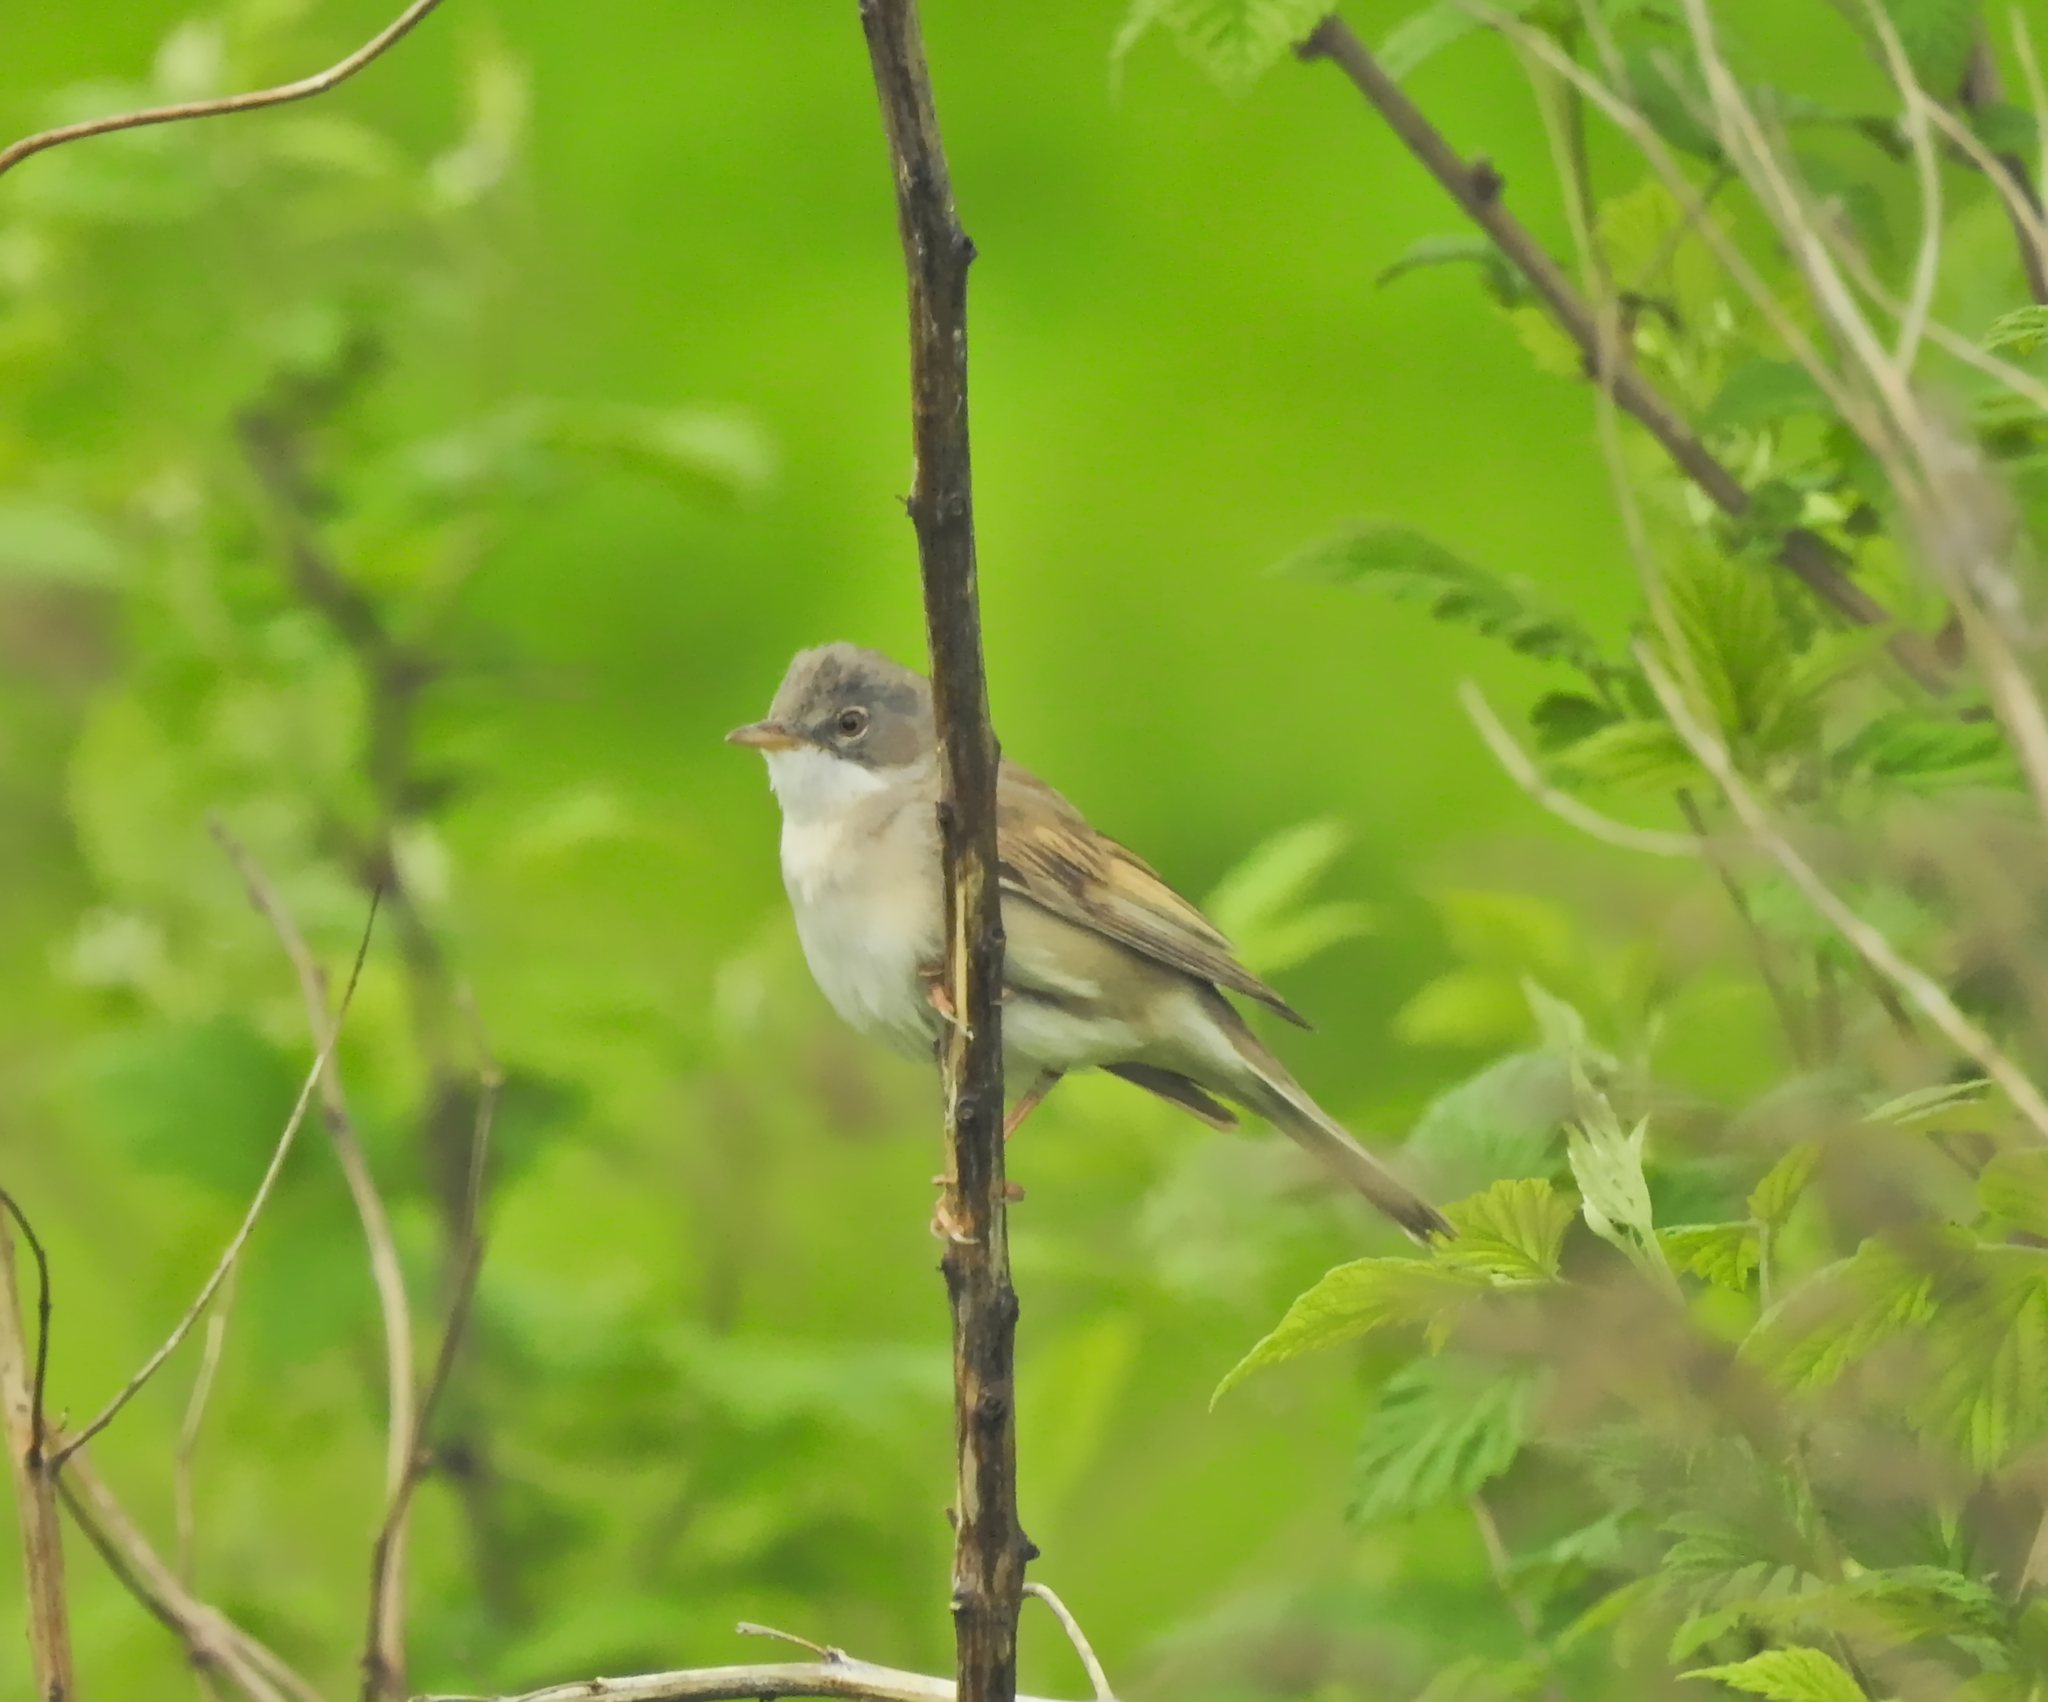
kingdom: Animalia
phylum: Chordata
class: Aves
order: Passeriformes
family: Sylviidae
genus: Sylvia
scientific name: Sylvia communis
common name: Common whitethroat
